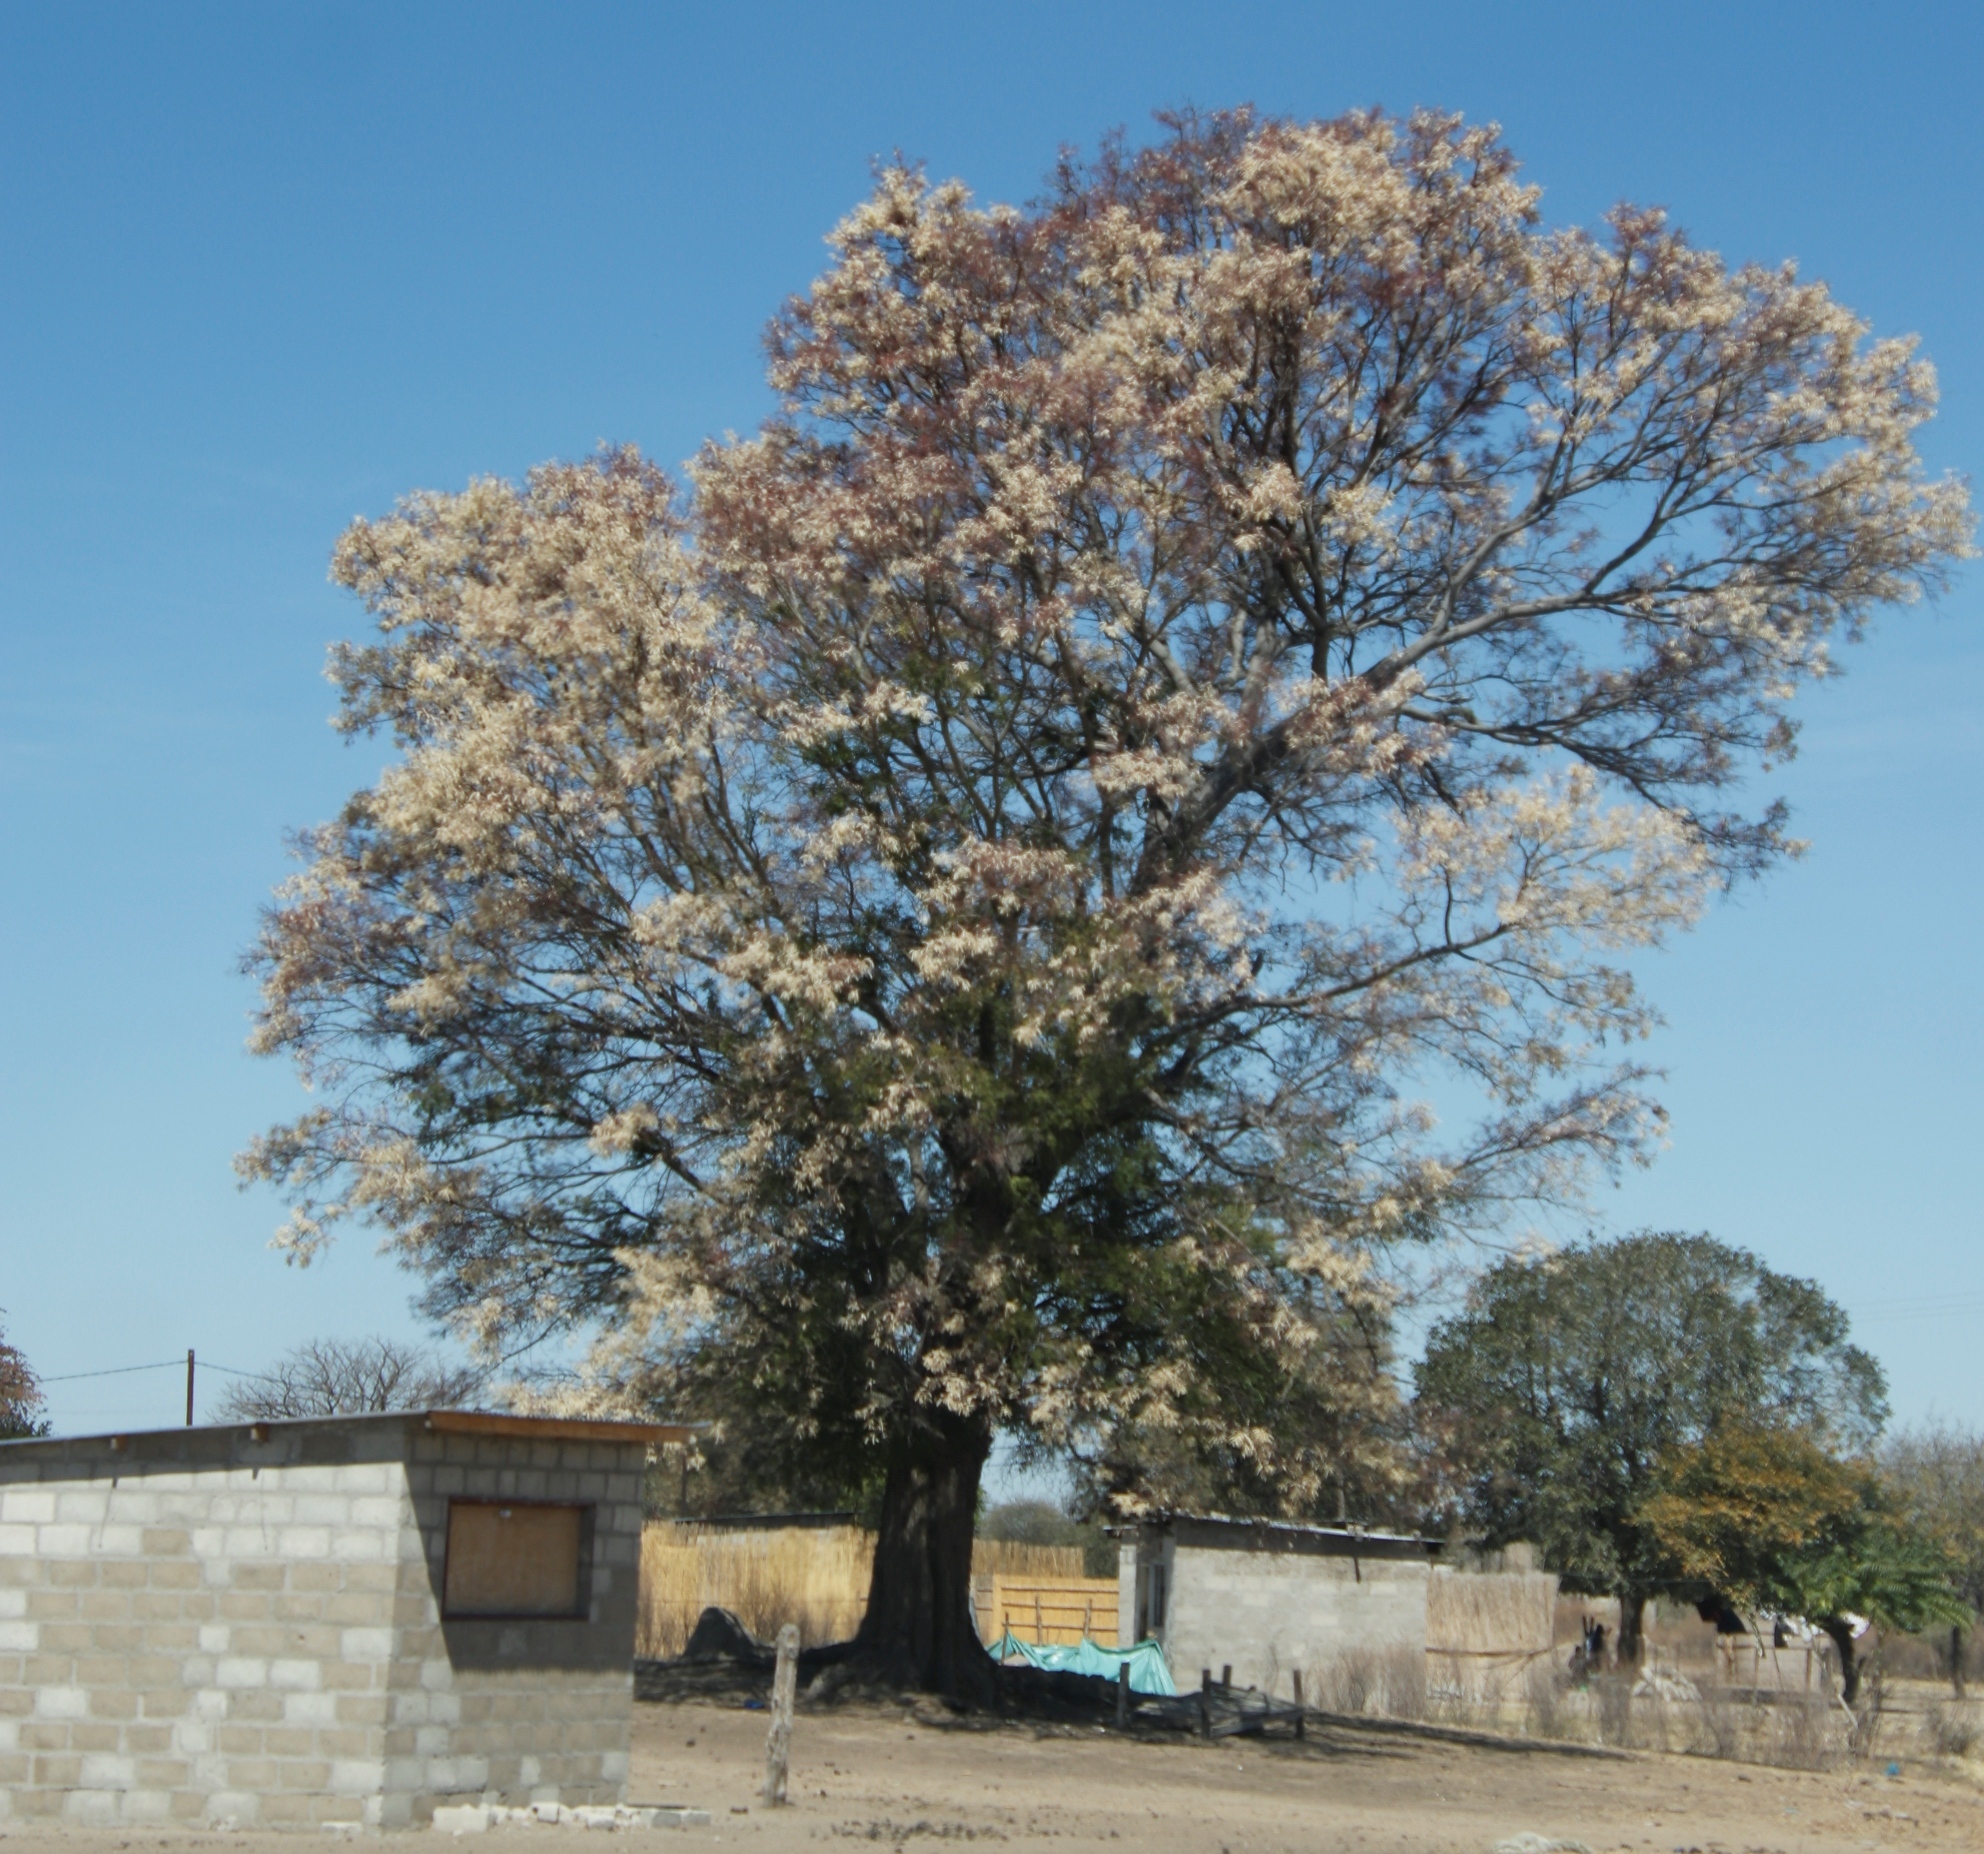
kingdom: Plantae
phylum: Tracheophyta
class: Magnoliopsida
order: Fabales
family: Fabaceae
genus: Senegalia
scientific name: Senegalia nigrescens
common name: Knobthorn
